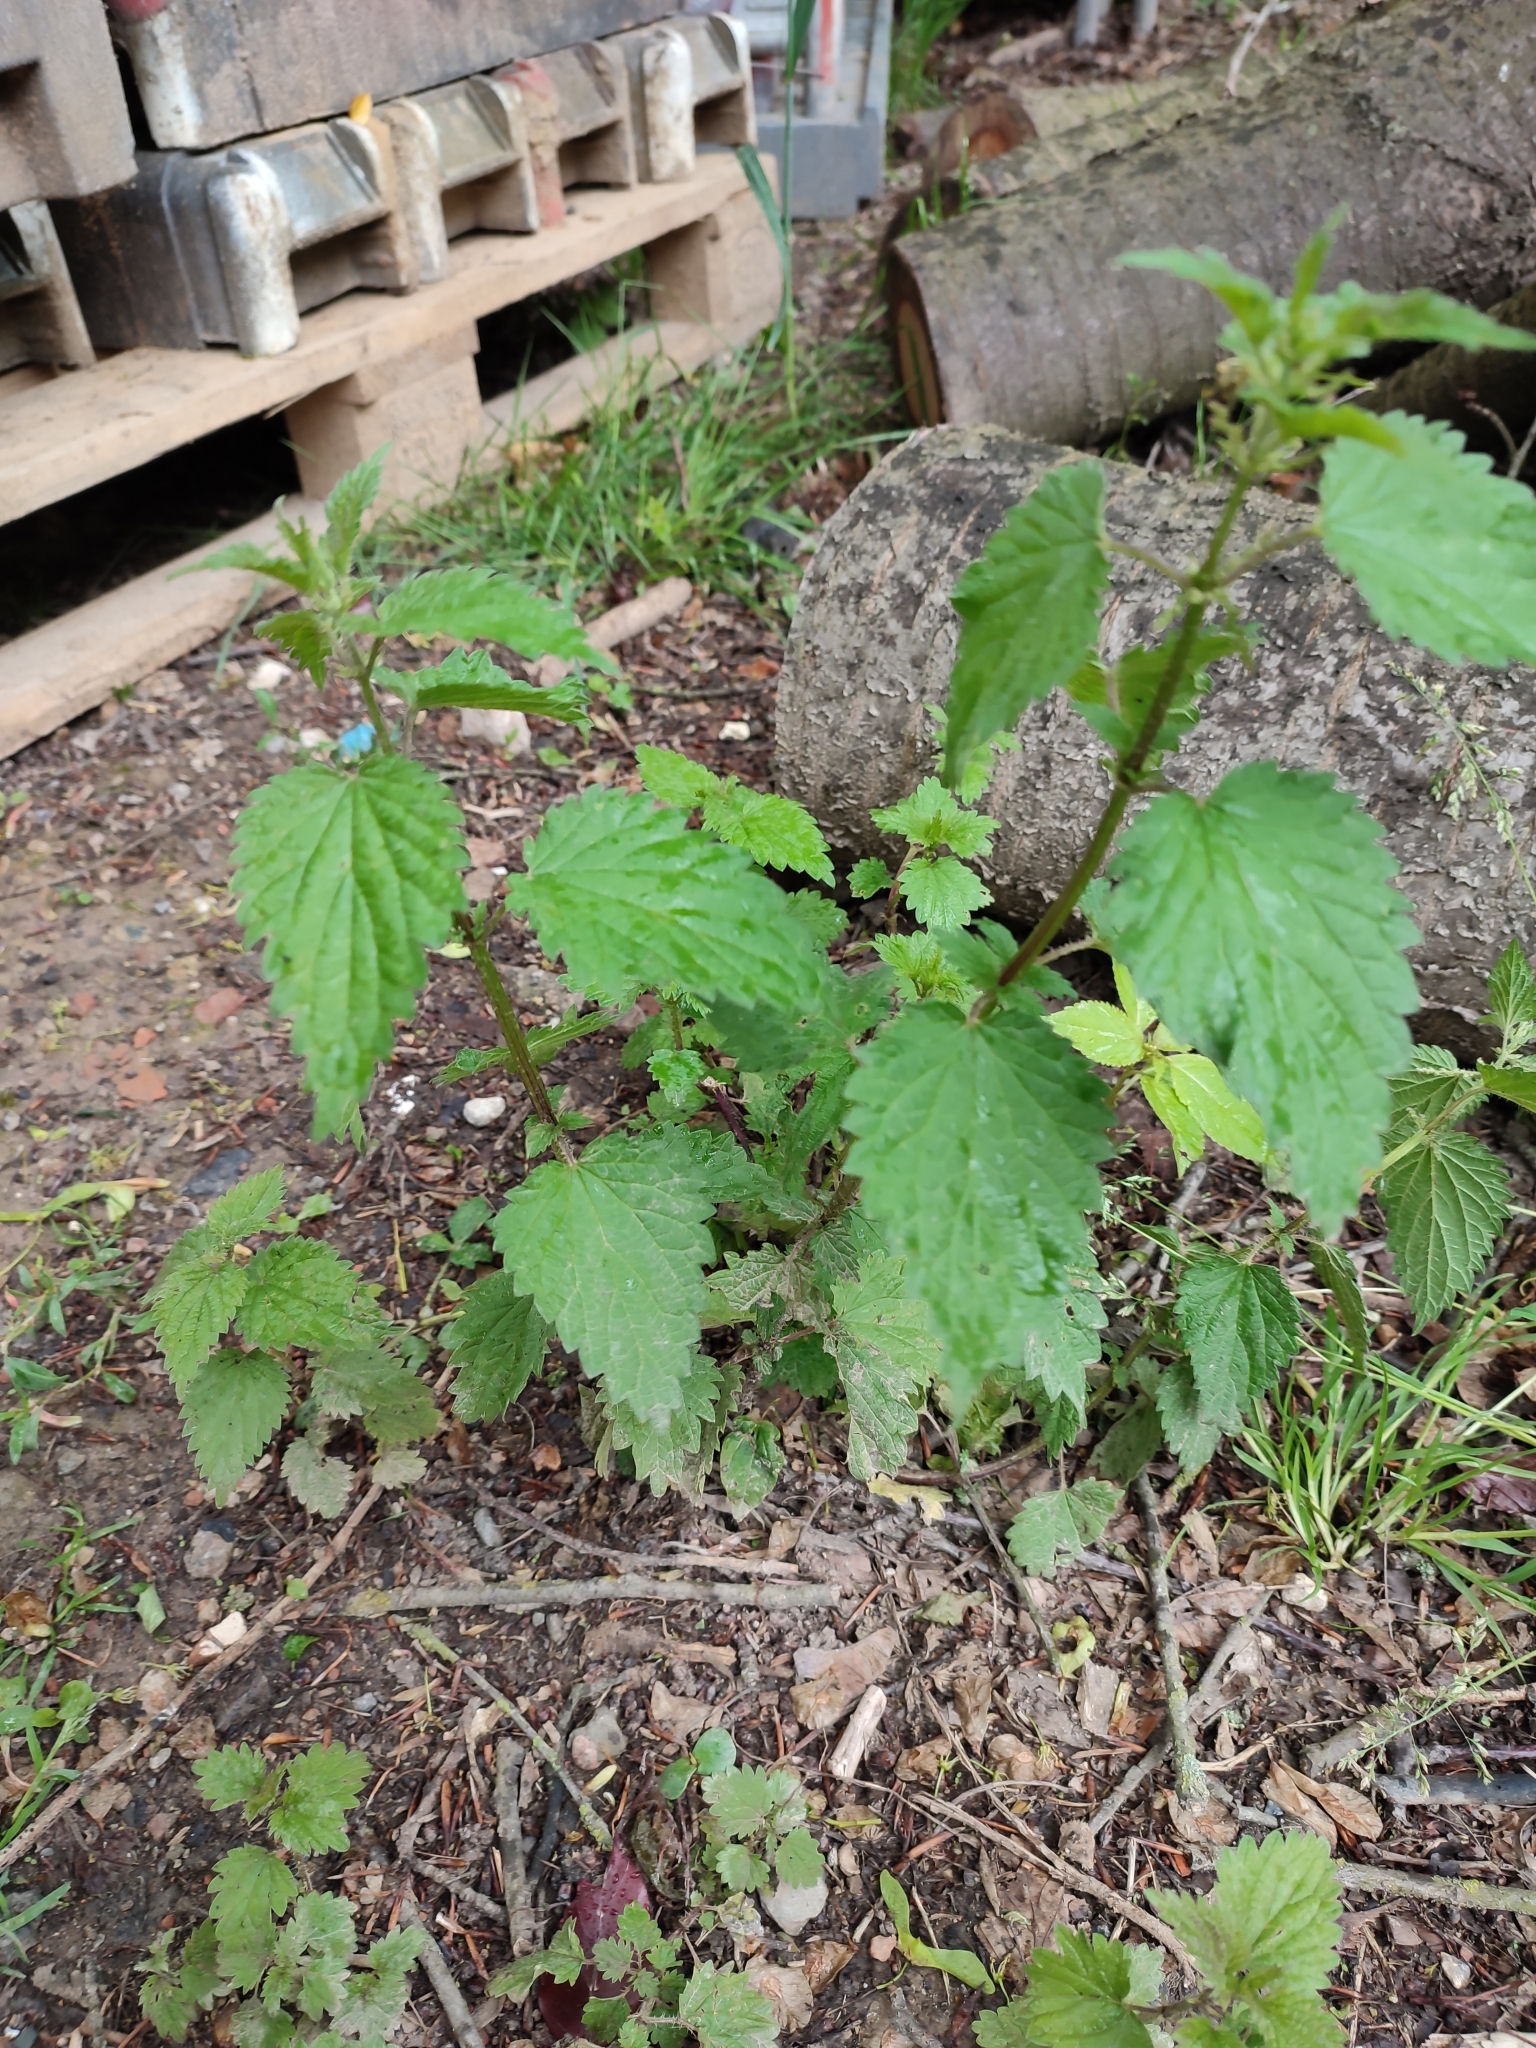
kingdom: Plantae
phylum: Tracheophyta
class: Magnoliopsida
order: Rosales
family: Urticaceae
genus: Urtica
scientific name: Urtica dioica
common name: Common nettle
